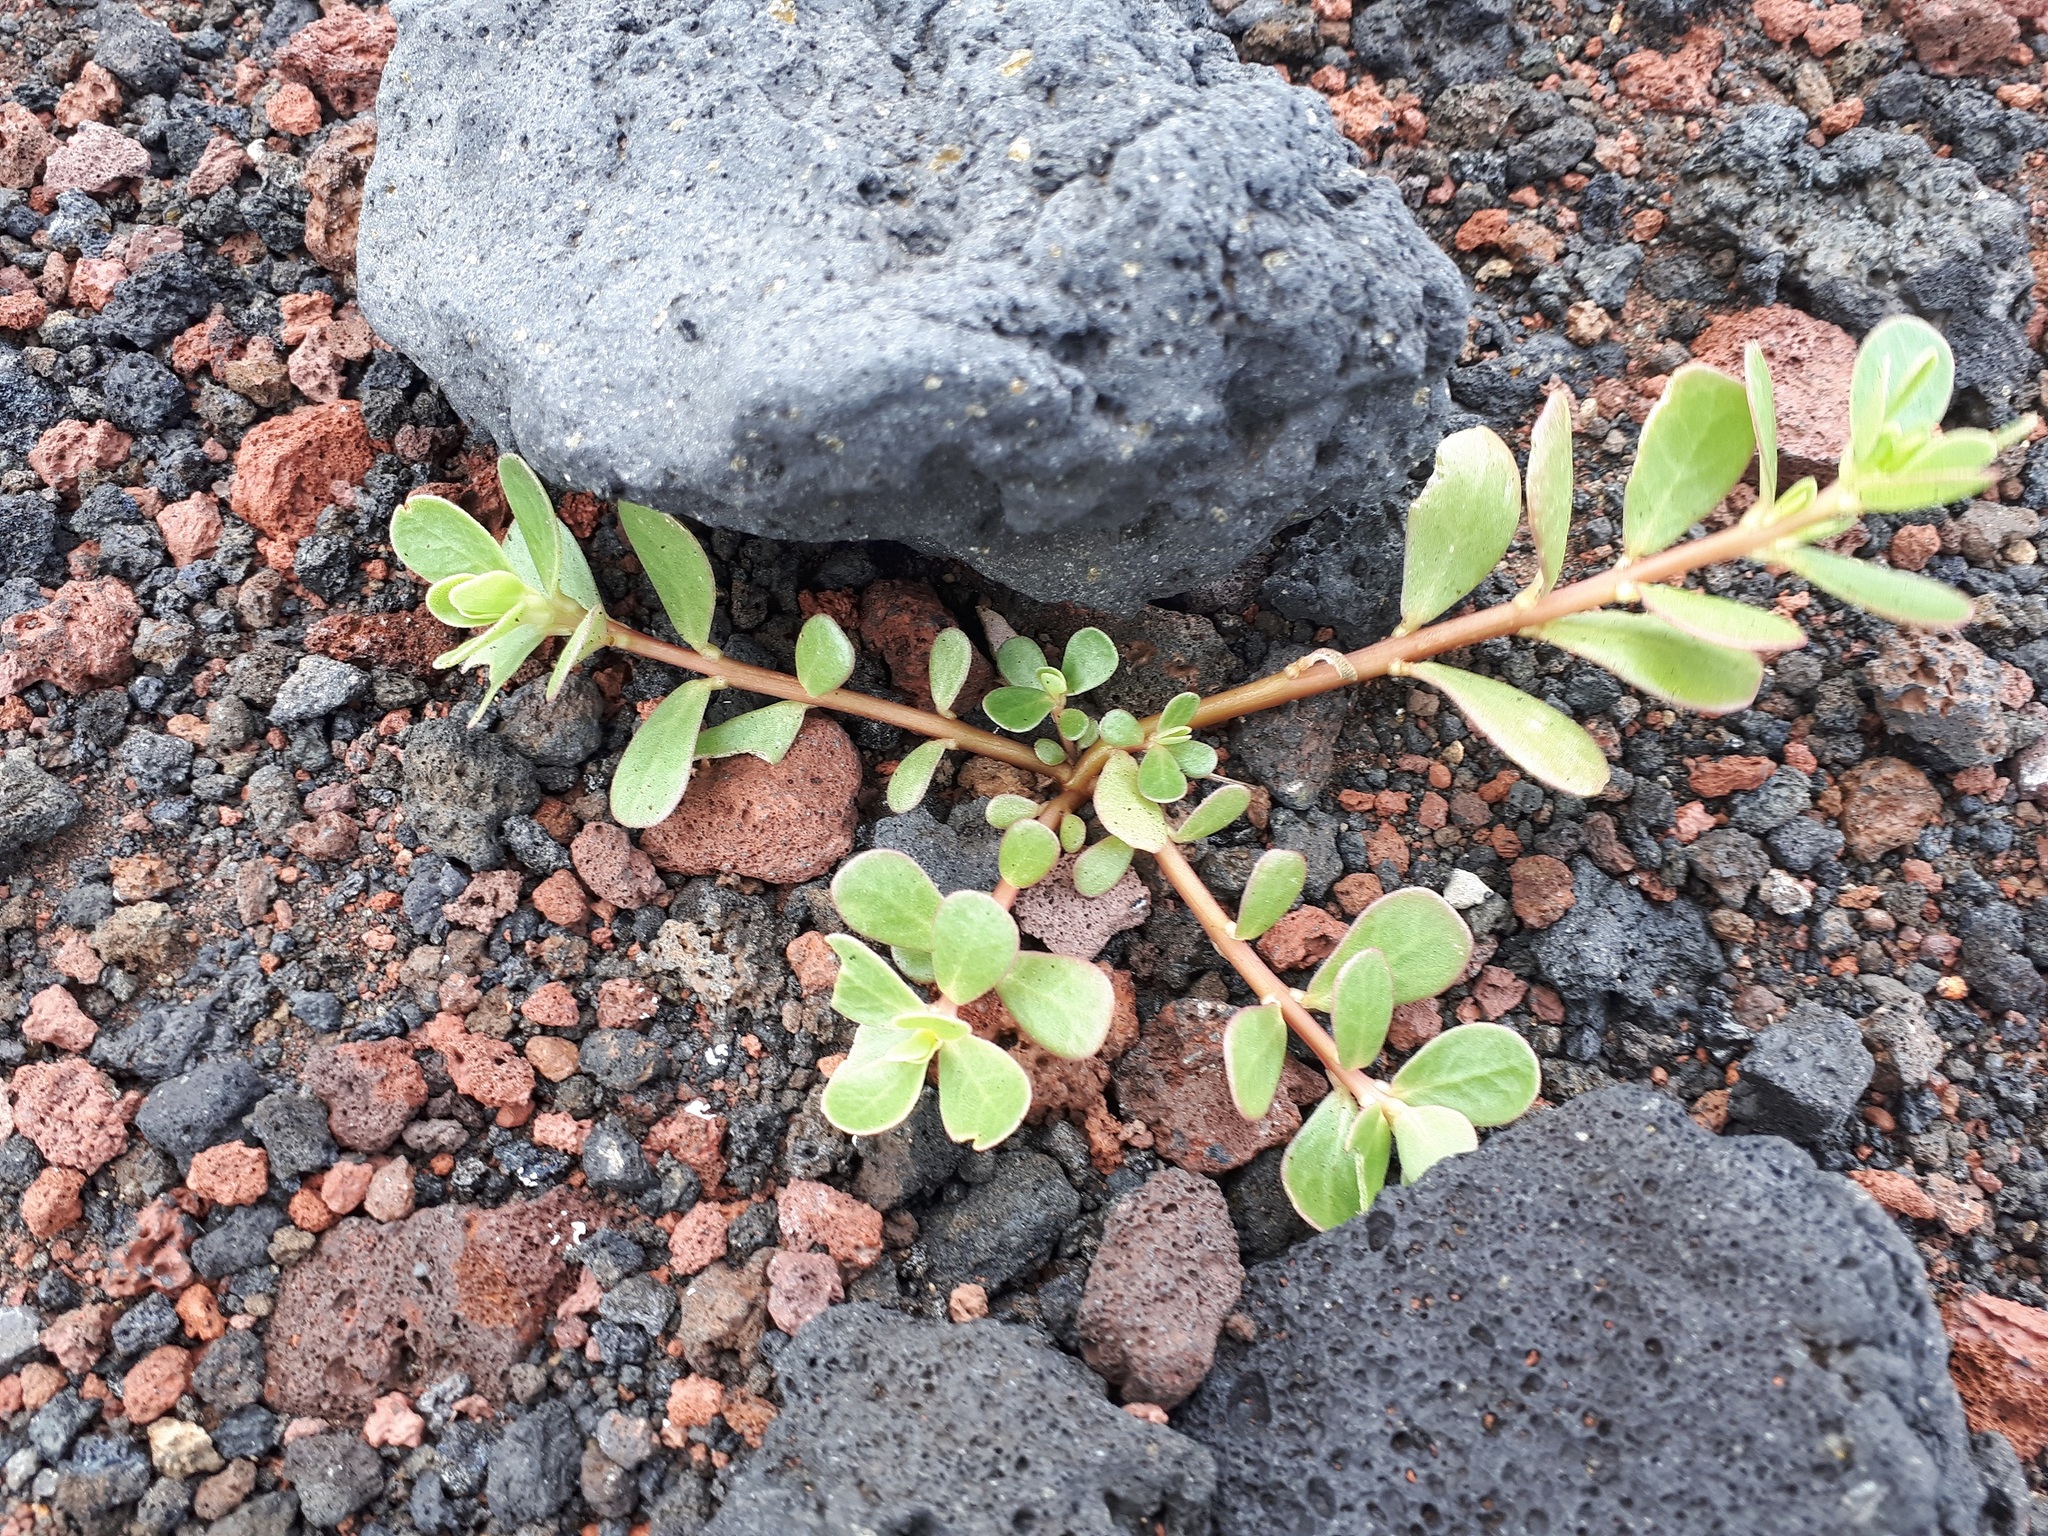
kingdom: Plantae
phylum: Tracheophyta
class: Magnoliopsida
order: Caryophyllales
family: Portulacaceae
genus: Portulaca
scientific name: Portulaca oleracea
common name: Common purslane
